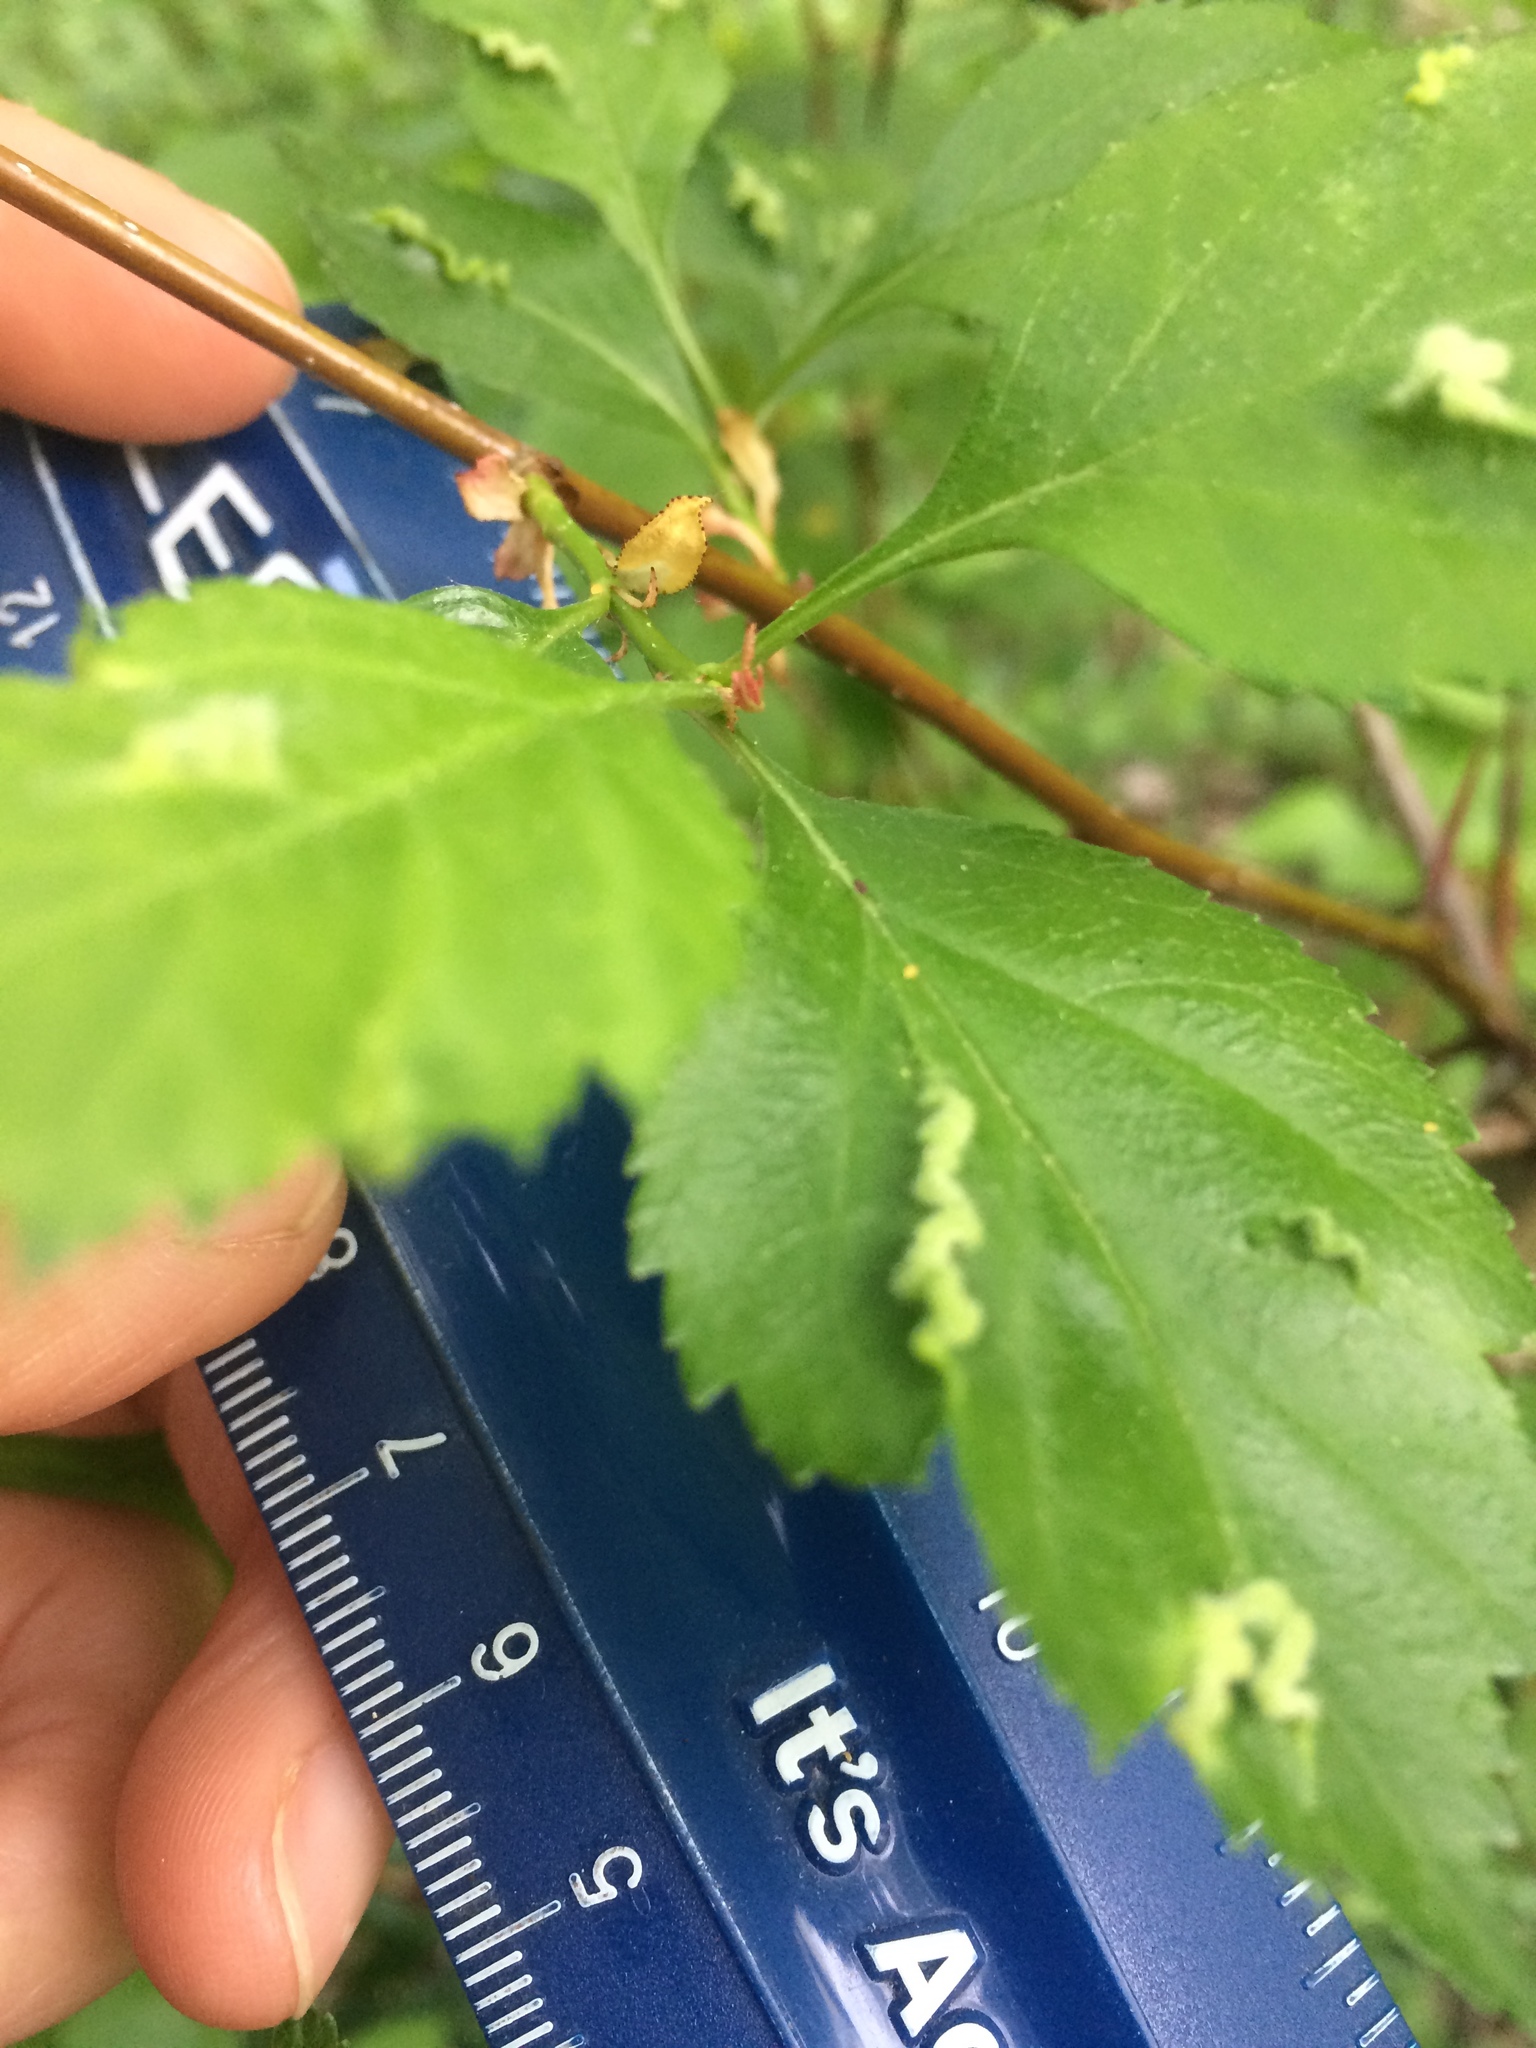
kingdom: Animalia
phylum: Arthropoda
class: Insecta
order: Diptera
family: Cecidomyiidae
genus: Blaesodiplosis
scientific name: Blaesodiplosis crataegifolia
